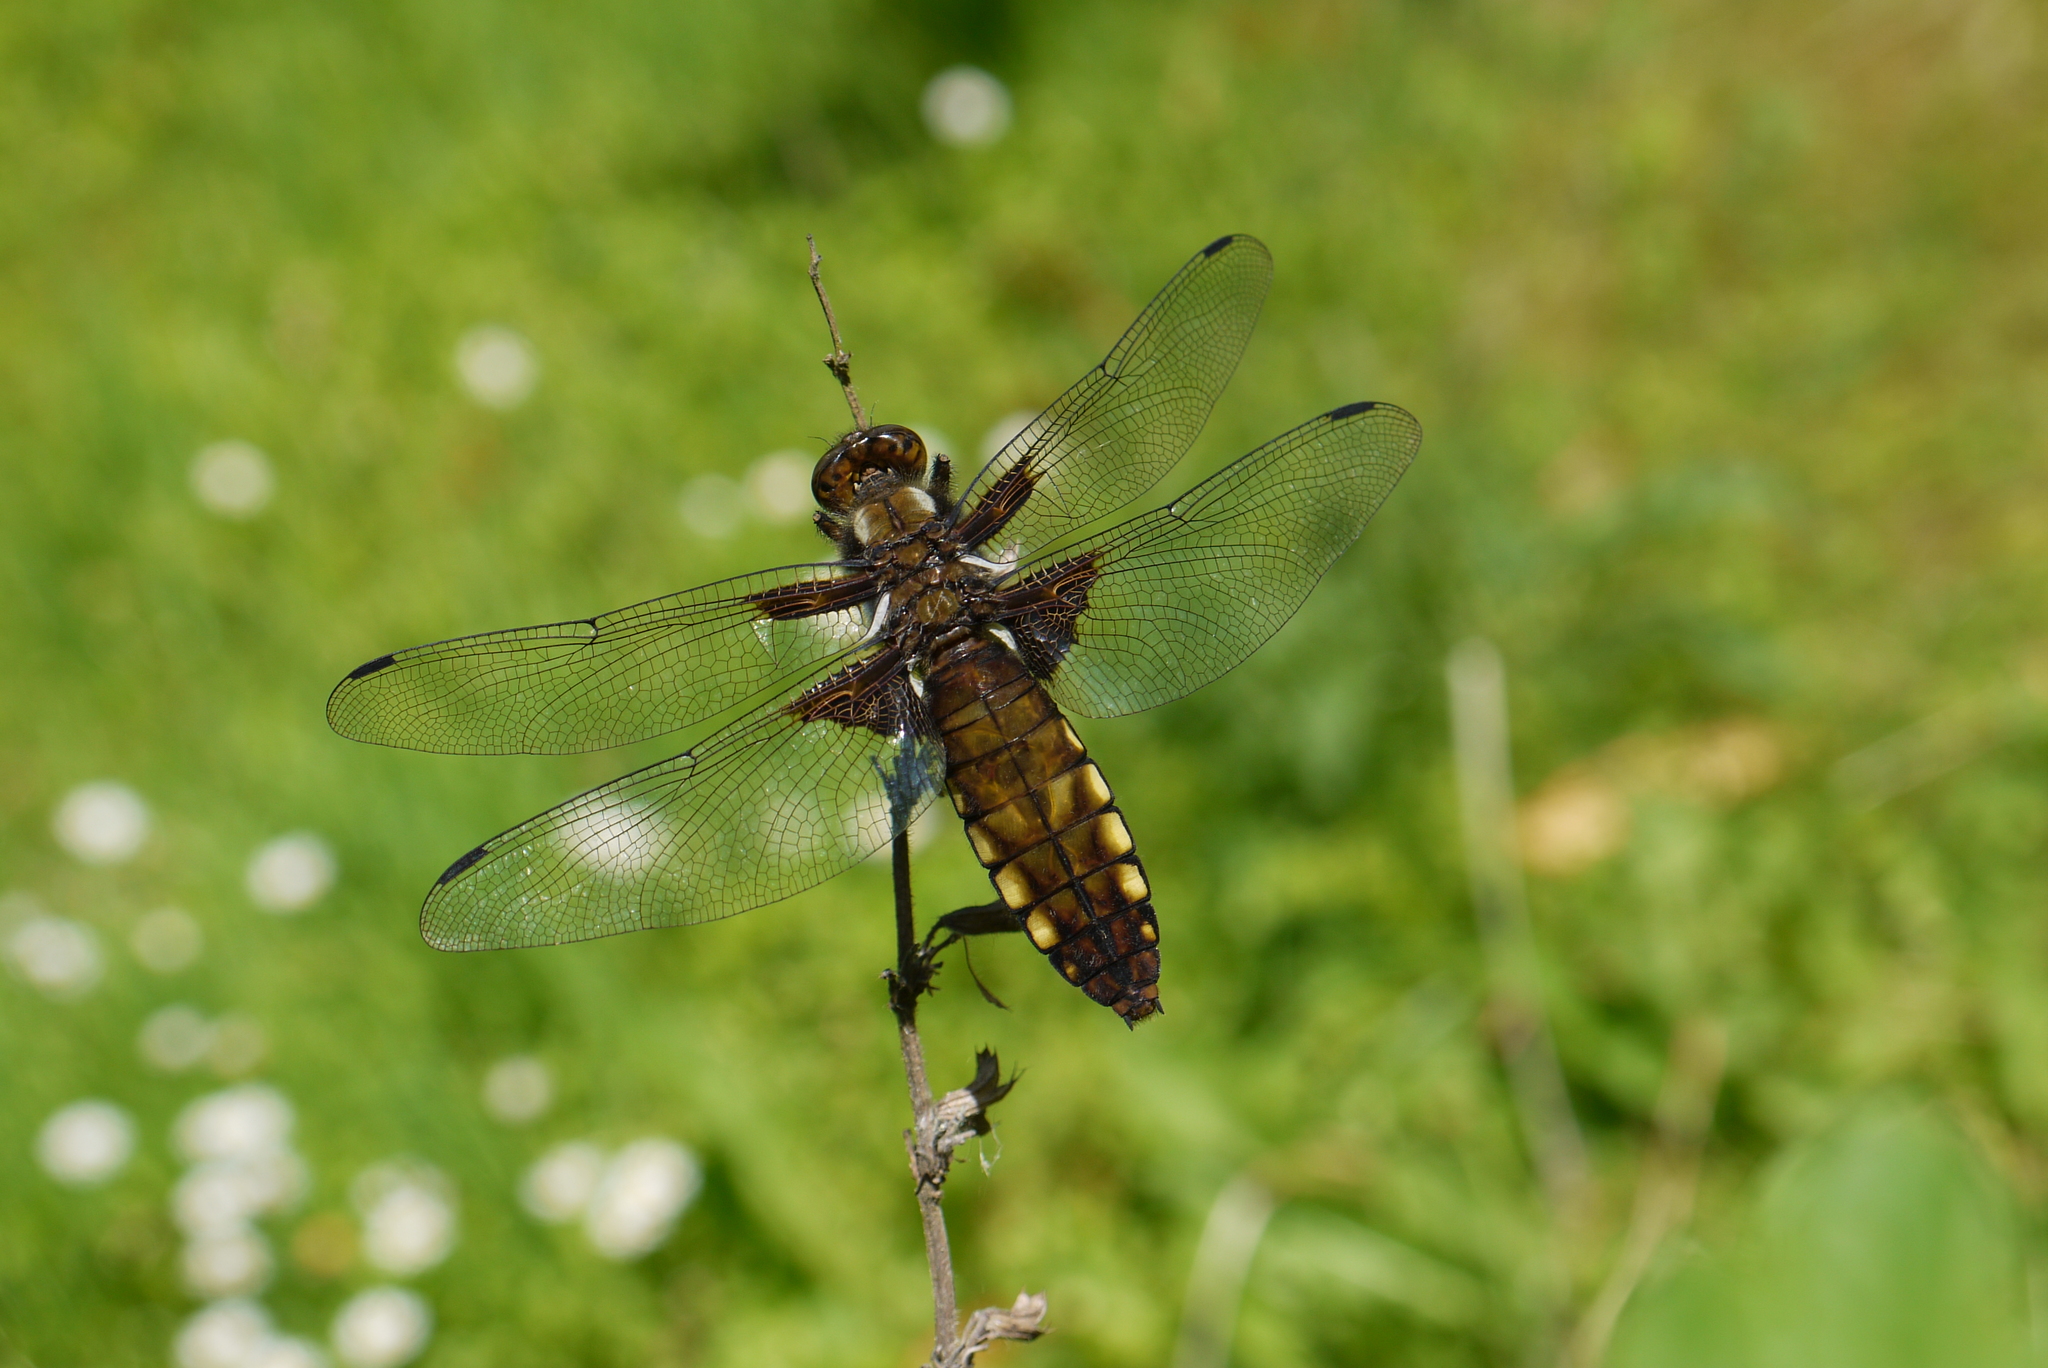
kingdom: Animalia
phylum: Arthropoda
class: Insecta
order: Odonata
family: Libellulidae
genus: Libellula
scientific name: Libellula depressa
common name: Broad-bodied chaser
